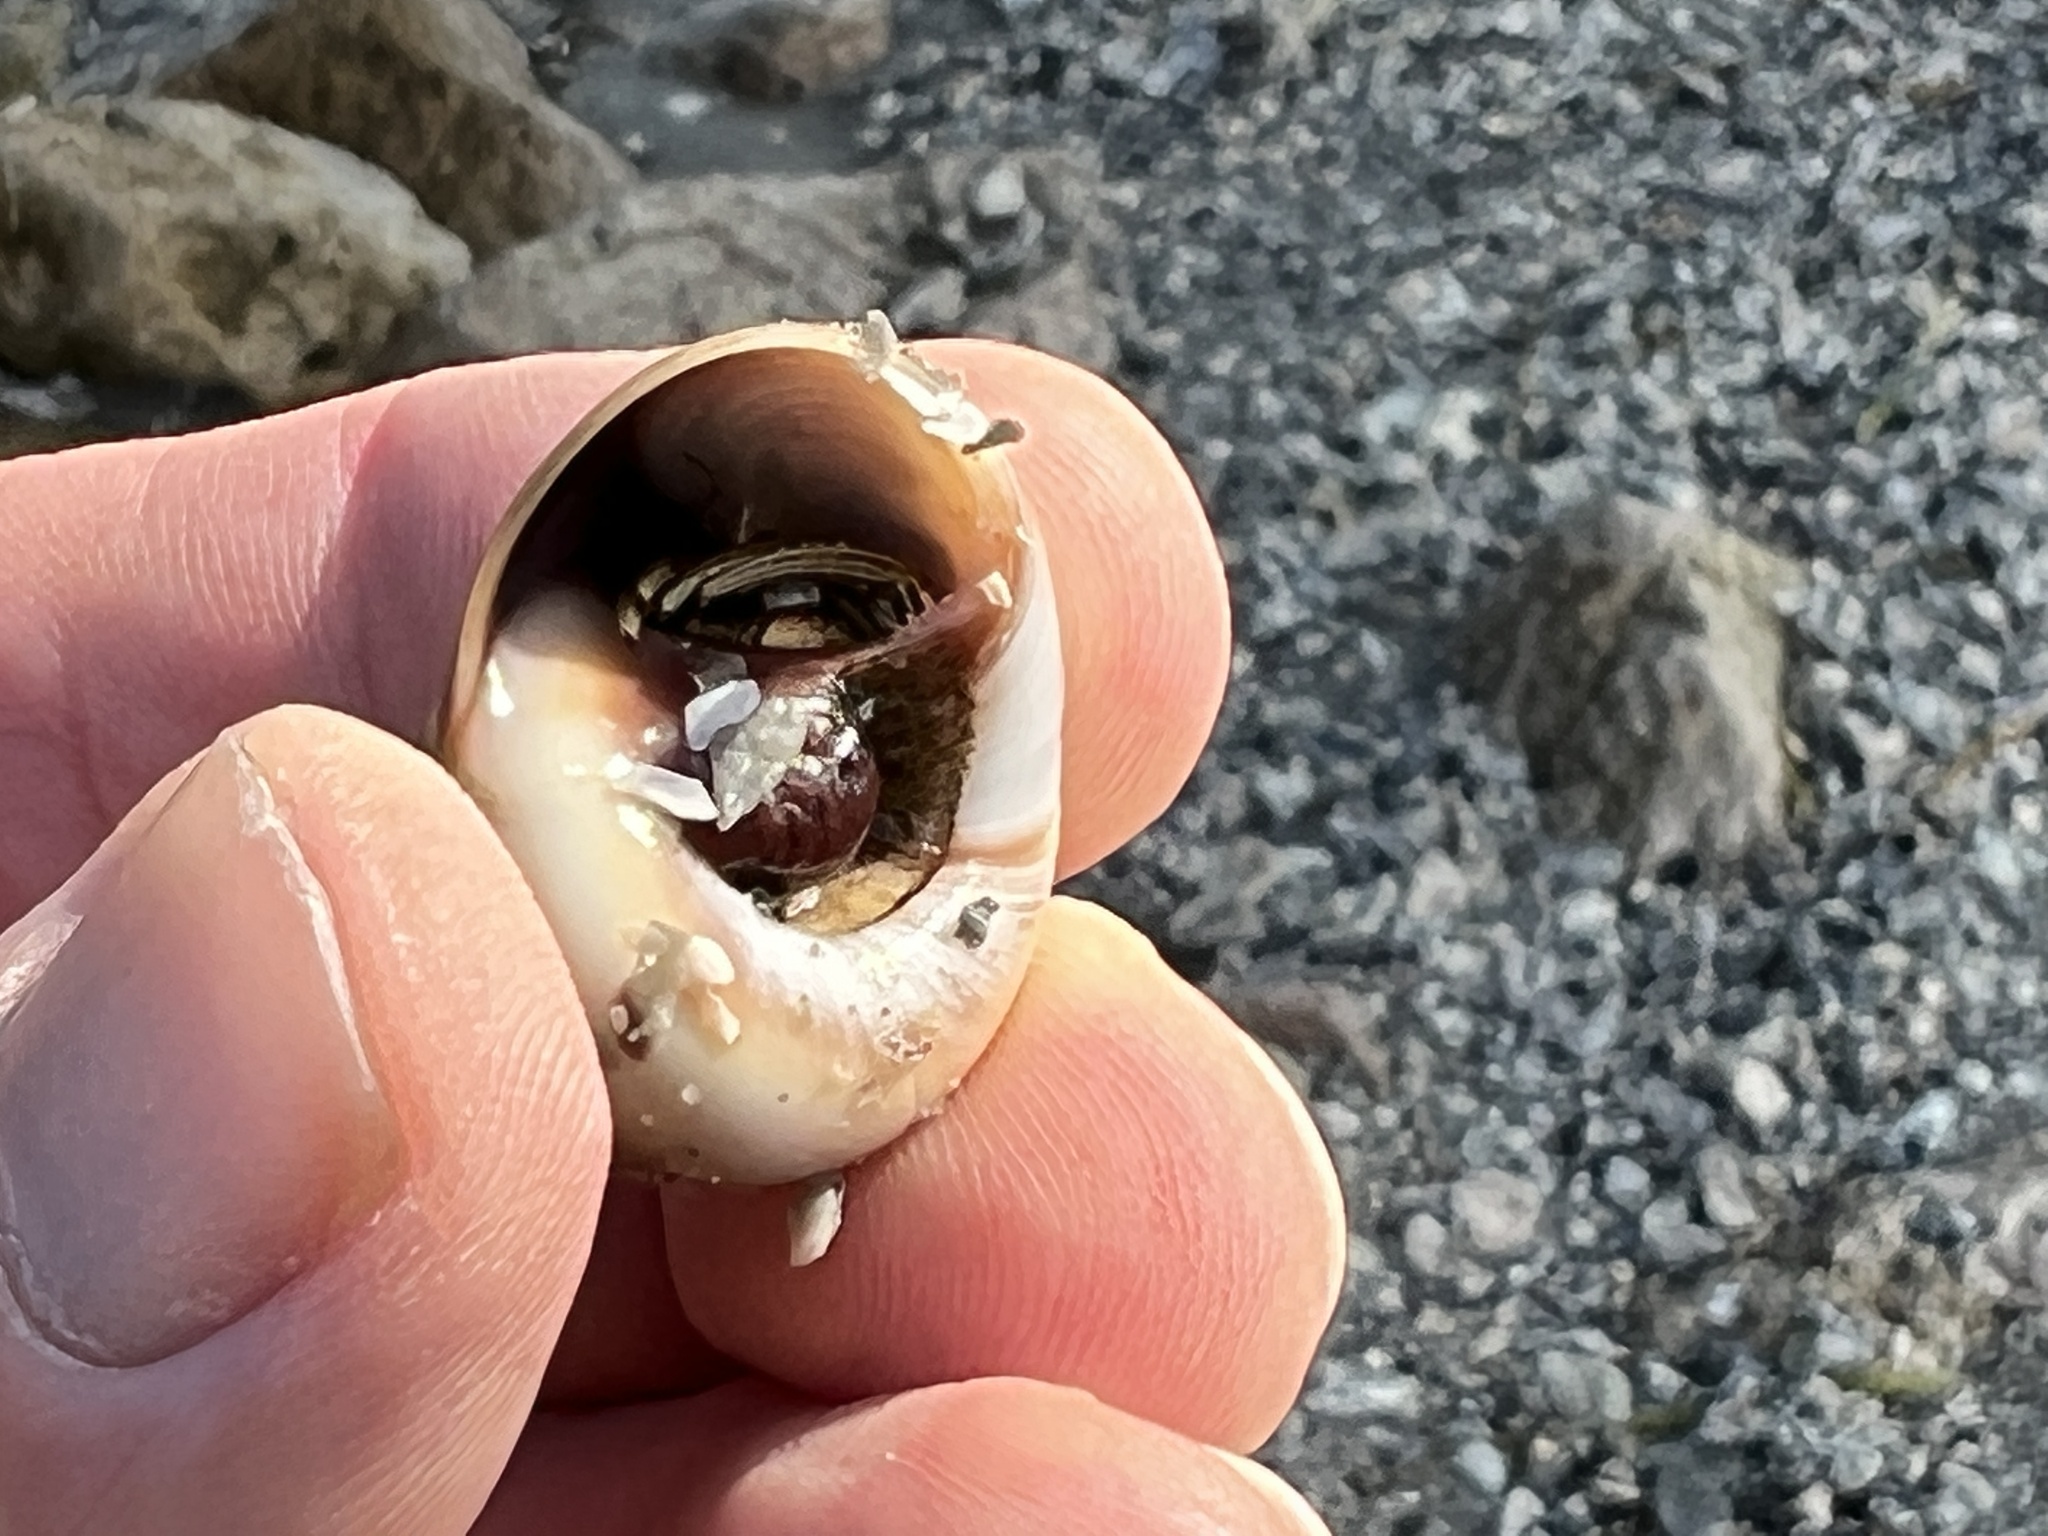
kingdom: Animalia
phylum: Arthropoda
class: Malacostraca
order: Decapoda
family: Diogenidae
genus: Clibanarius
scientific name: Clibanarius vittatus
